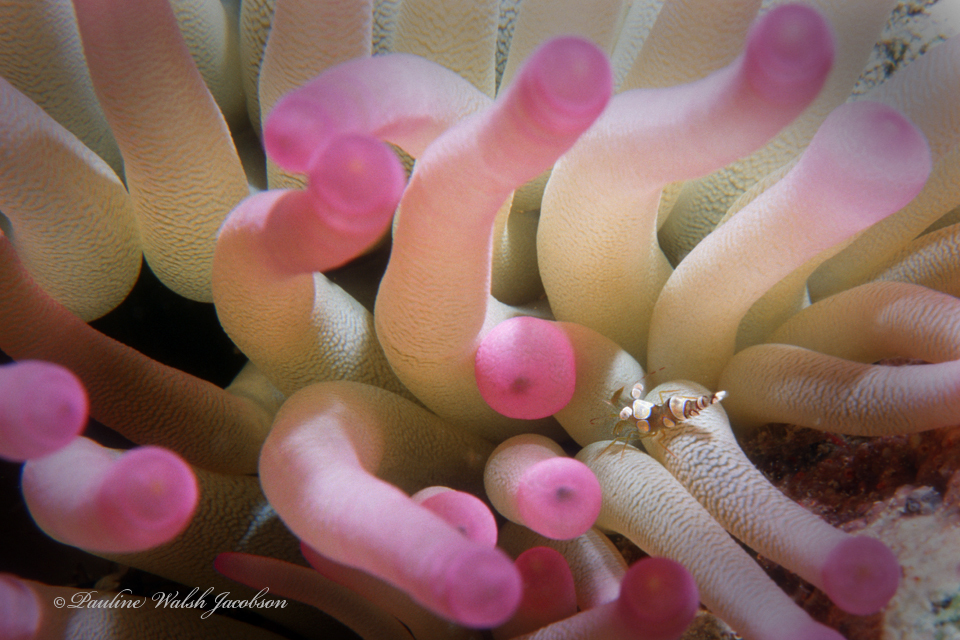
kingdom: Animalia
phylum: Arthropoda
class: Malacostraca
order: Decapoda
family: Thoridae
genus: Thor
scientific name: Thor dicaprio
